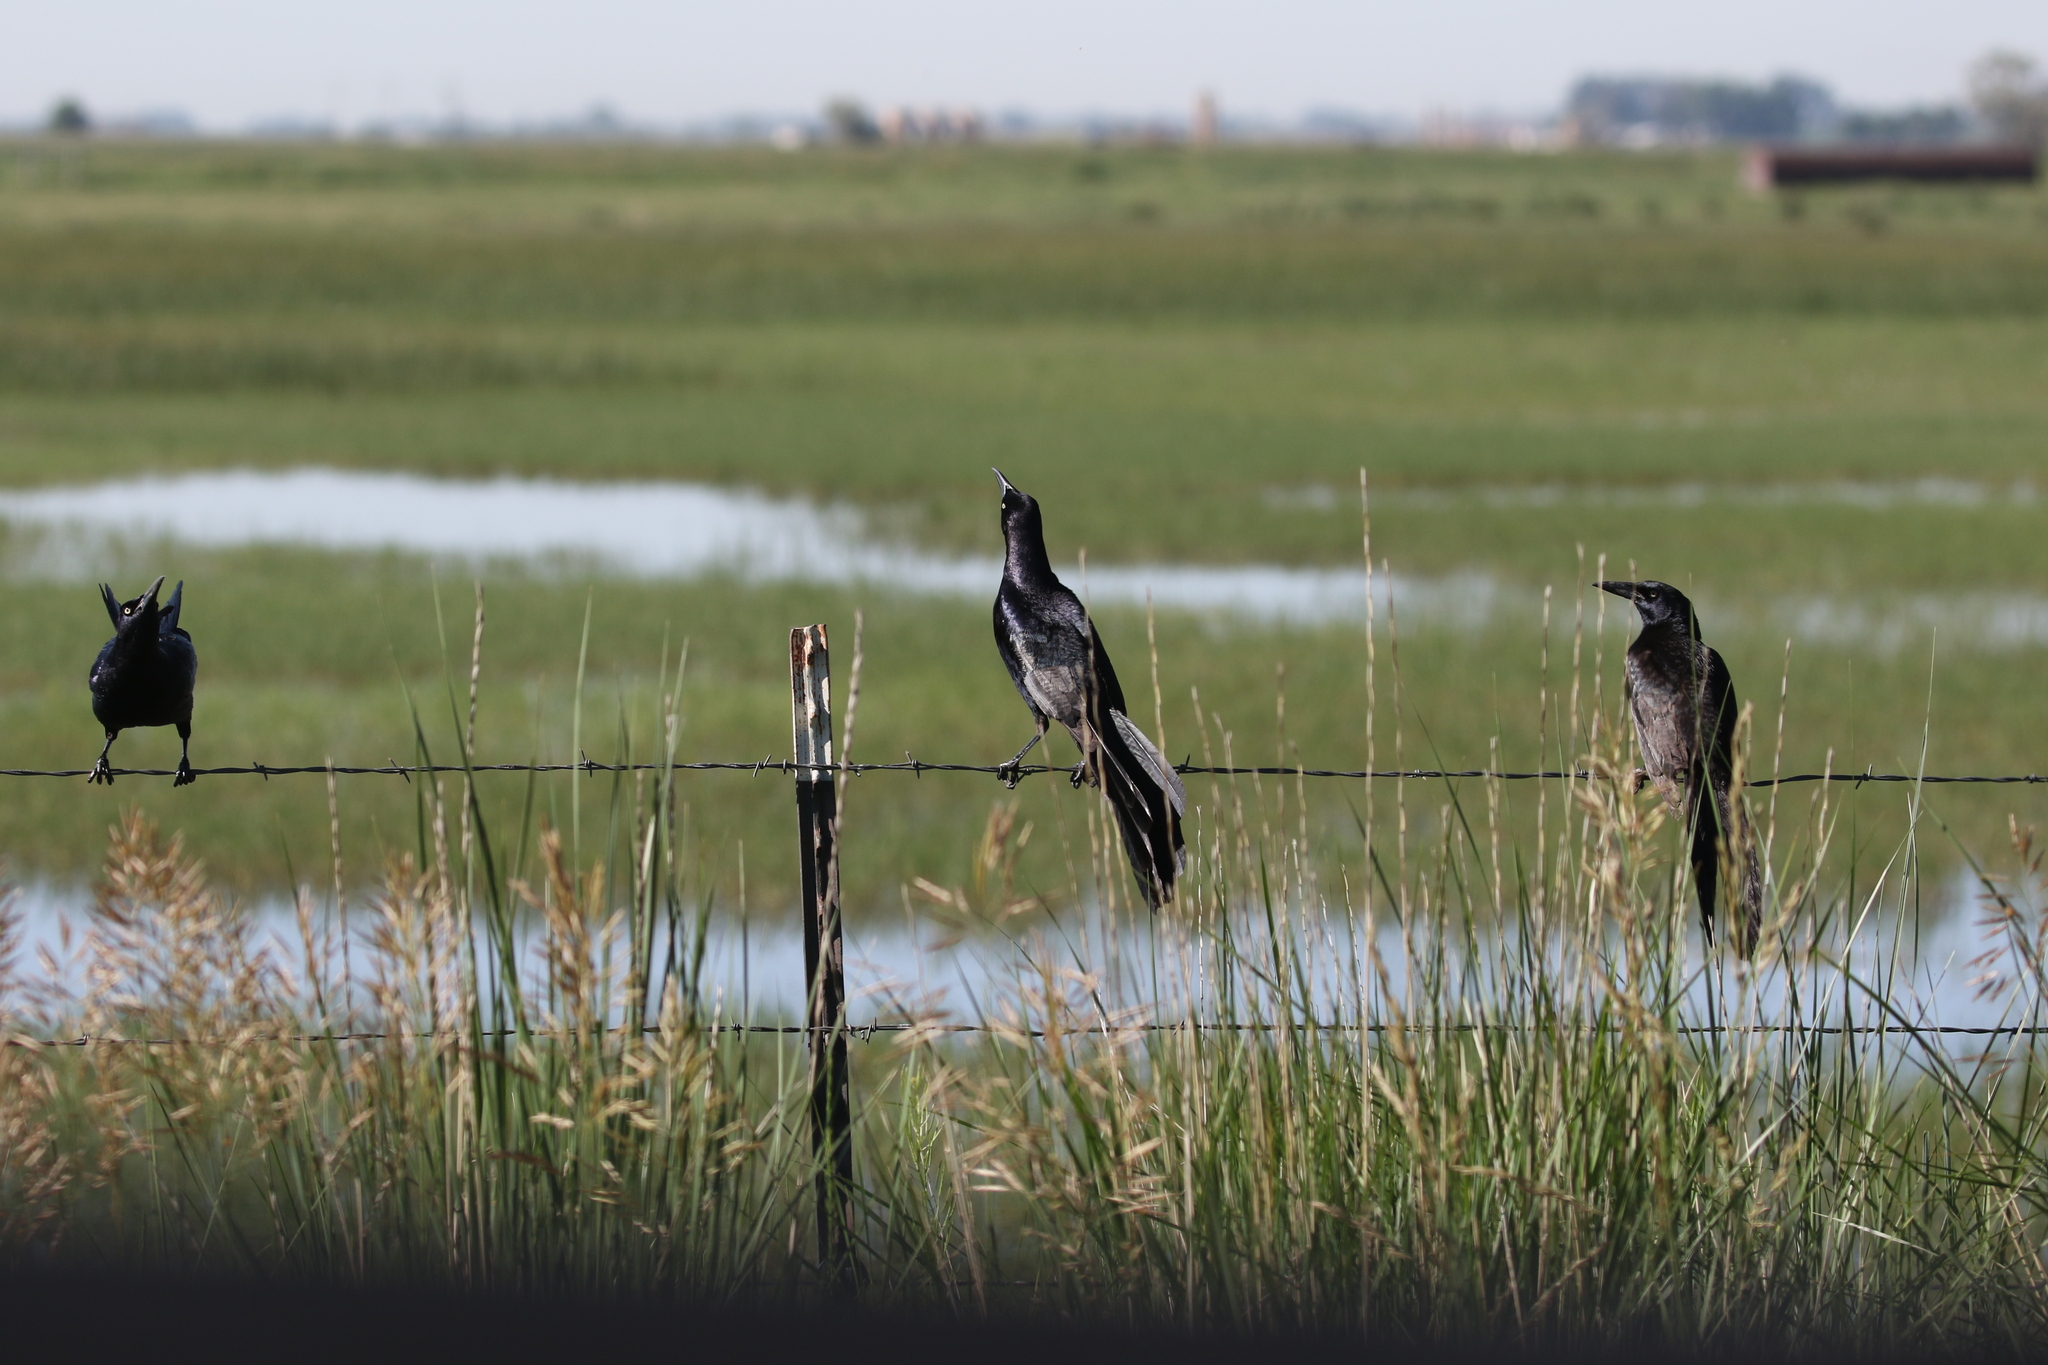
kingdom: Animalia
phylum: Chordata
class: Aves
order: Passeriformes
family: Icteridae
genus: Quiscalus
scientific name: Quiscalus mexicanus
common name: Great-tailed grackle
